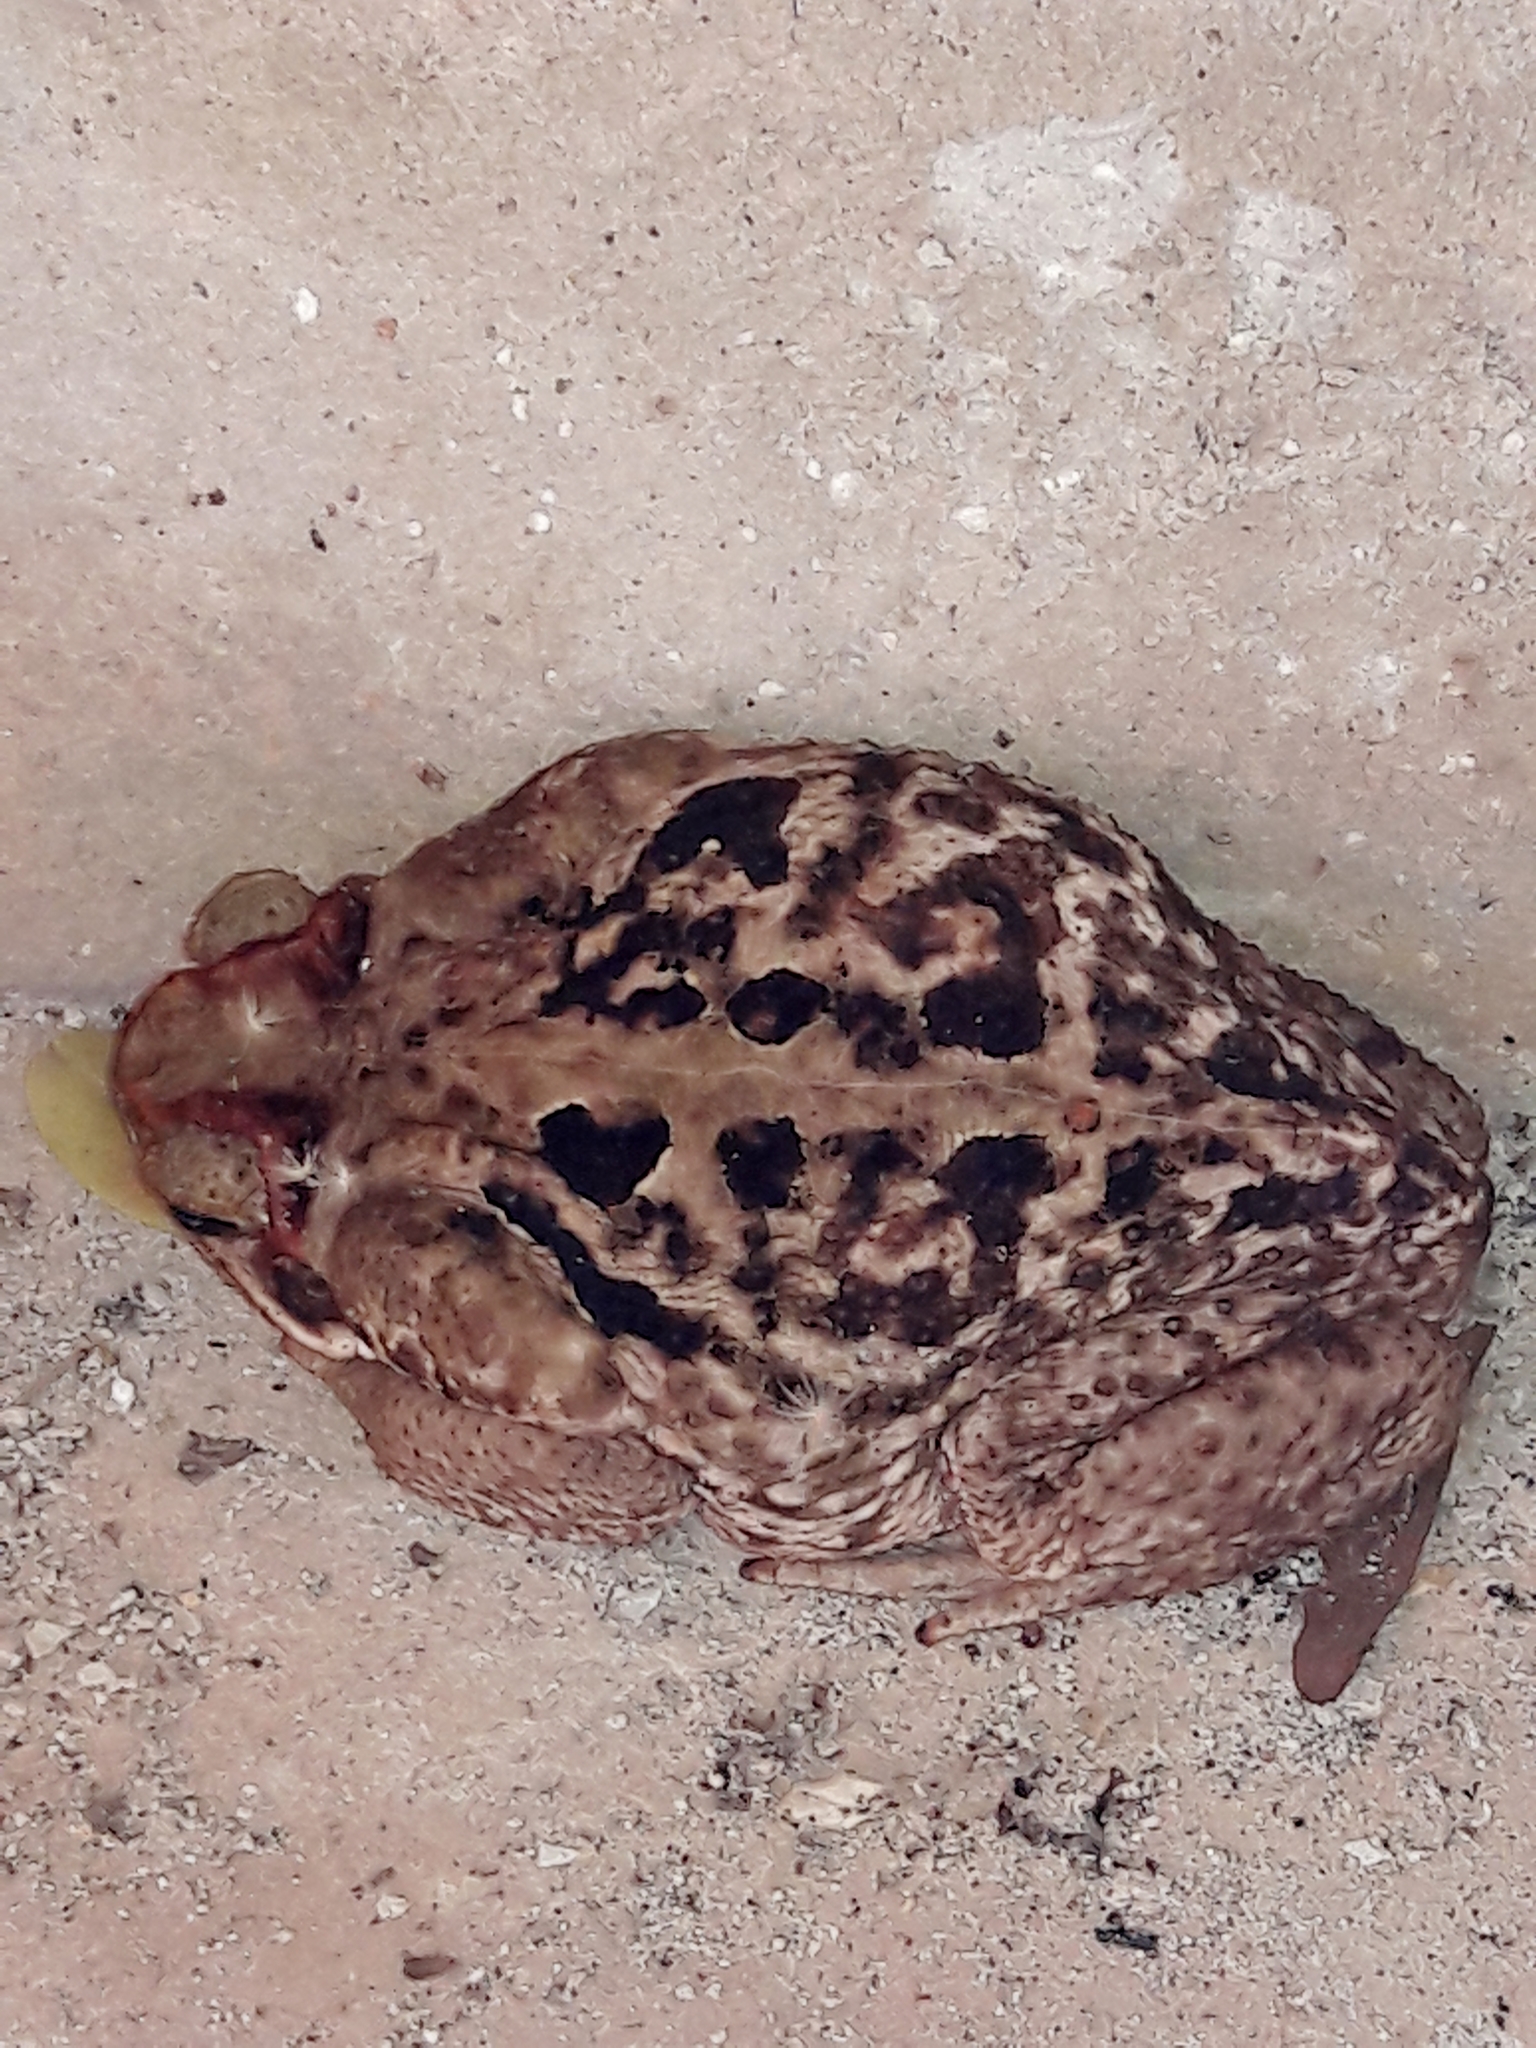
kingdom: Animalia
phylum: Chordata
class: Amphibia
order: Anura
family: Bufonidae
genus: Rhinella
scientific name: Rhinella diptycha
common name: Cope's toad
